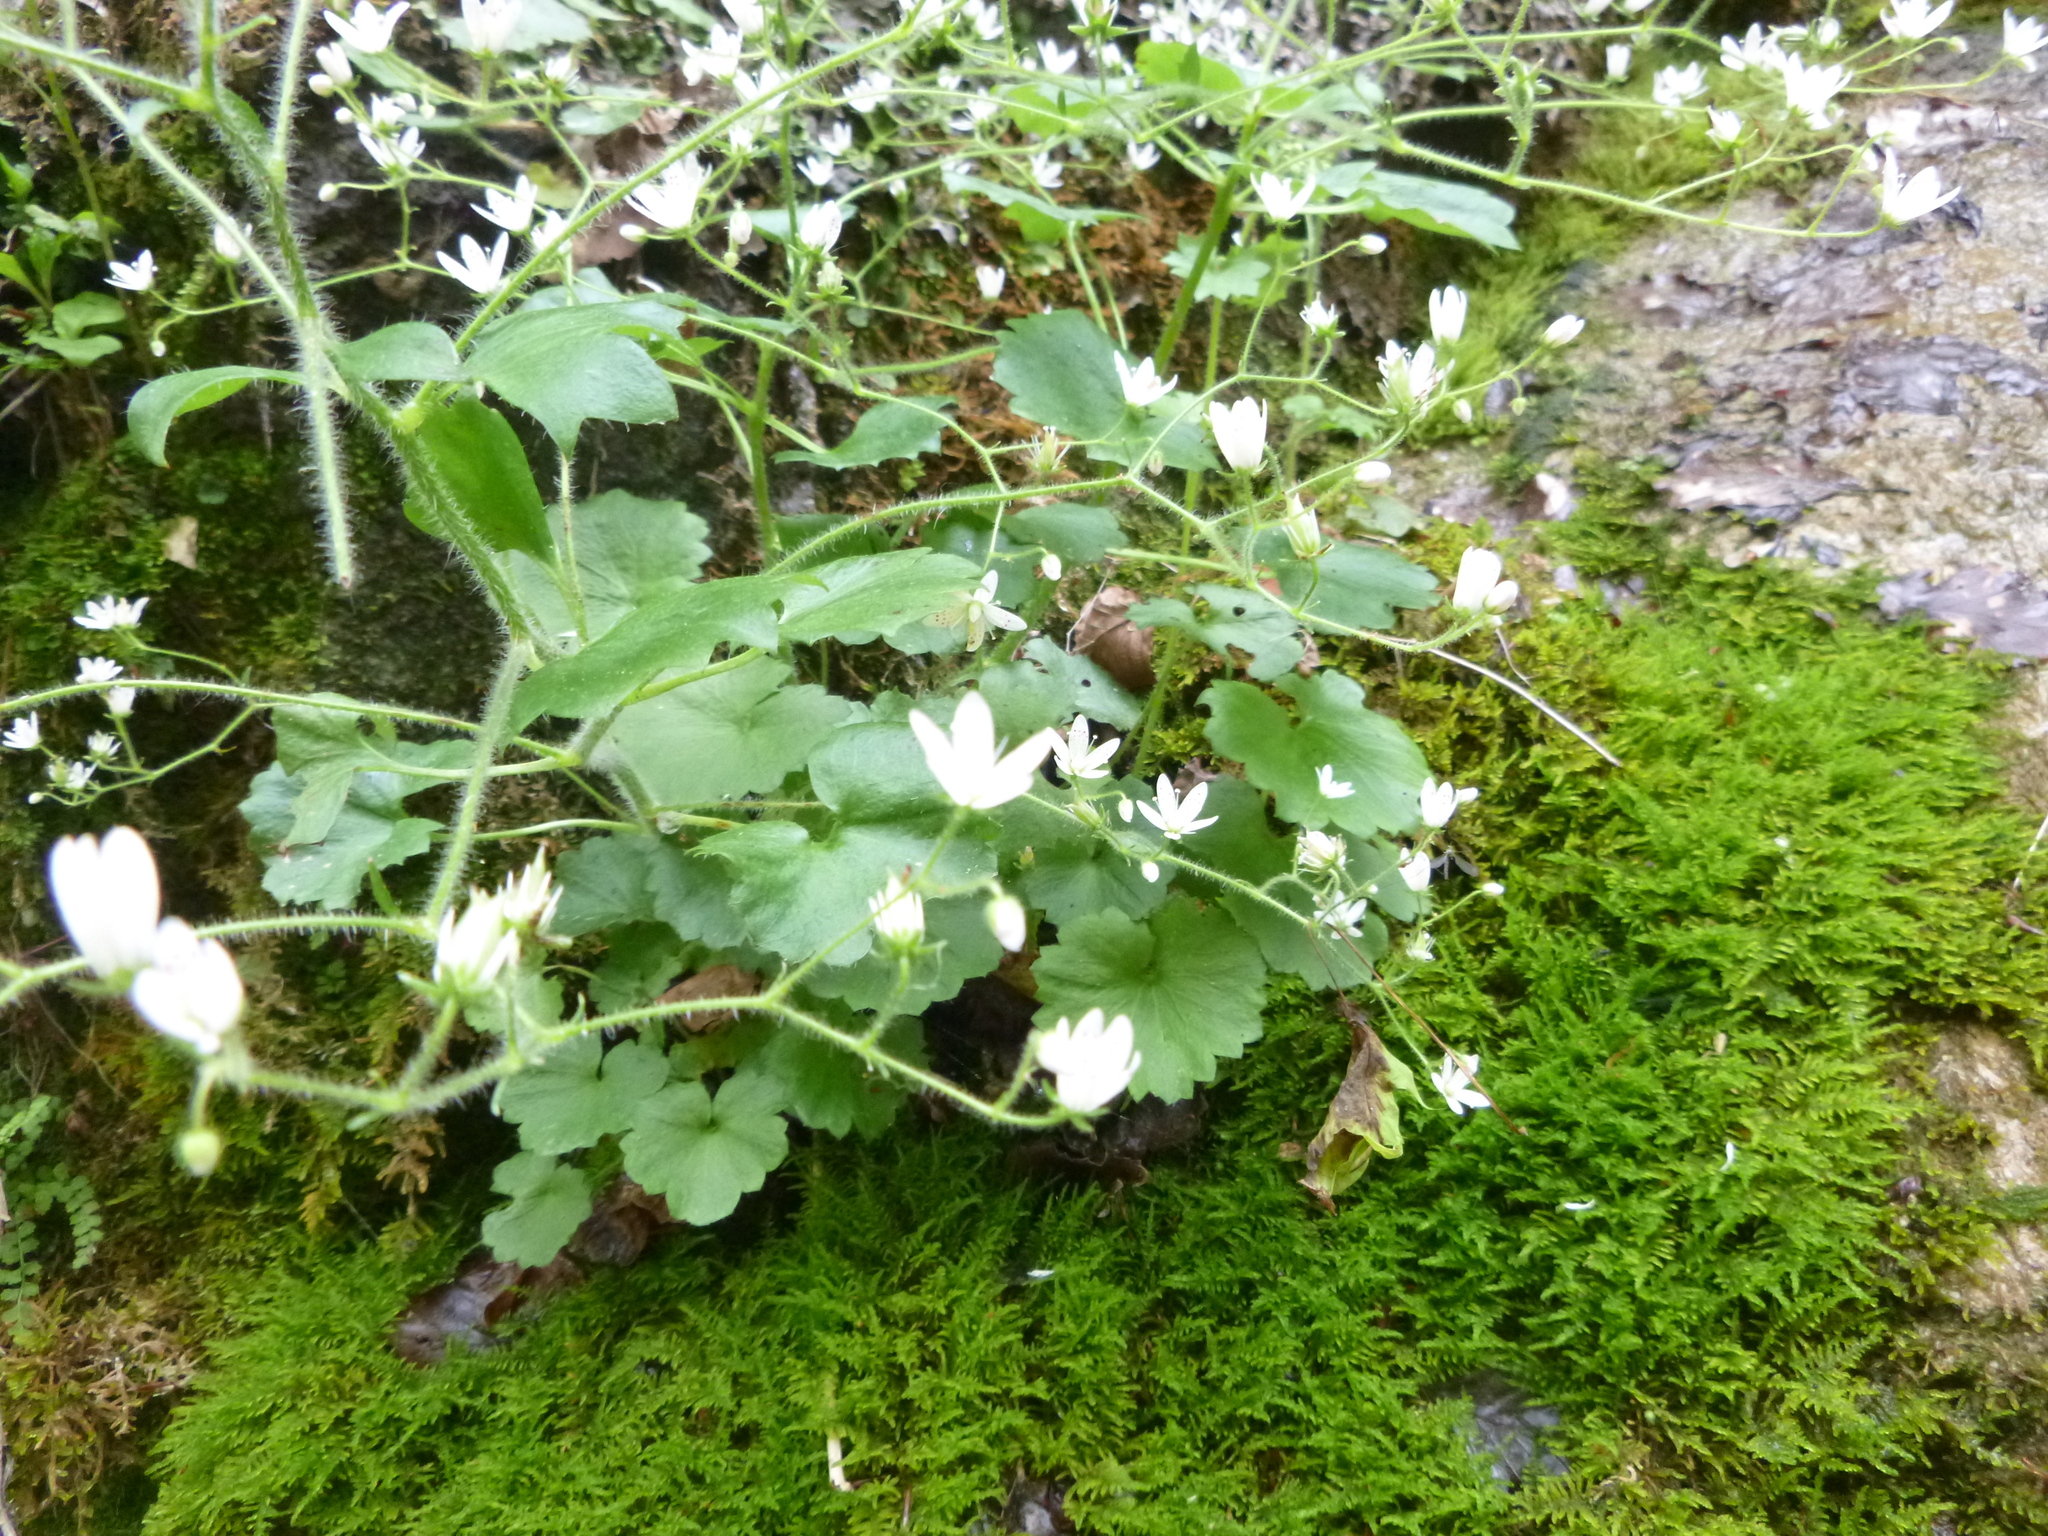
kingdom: Plantae
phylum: Tracheophyta
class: Magnoliopsida
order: Saxifragales
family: Saxifragaceae
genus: Saxifraga
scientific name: Saxifraga rotundifolia
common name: Round-leaved saxifrage
